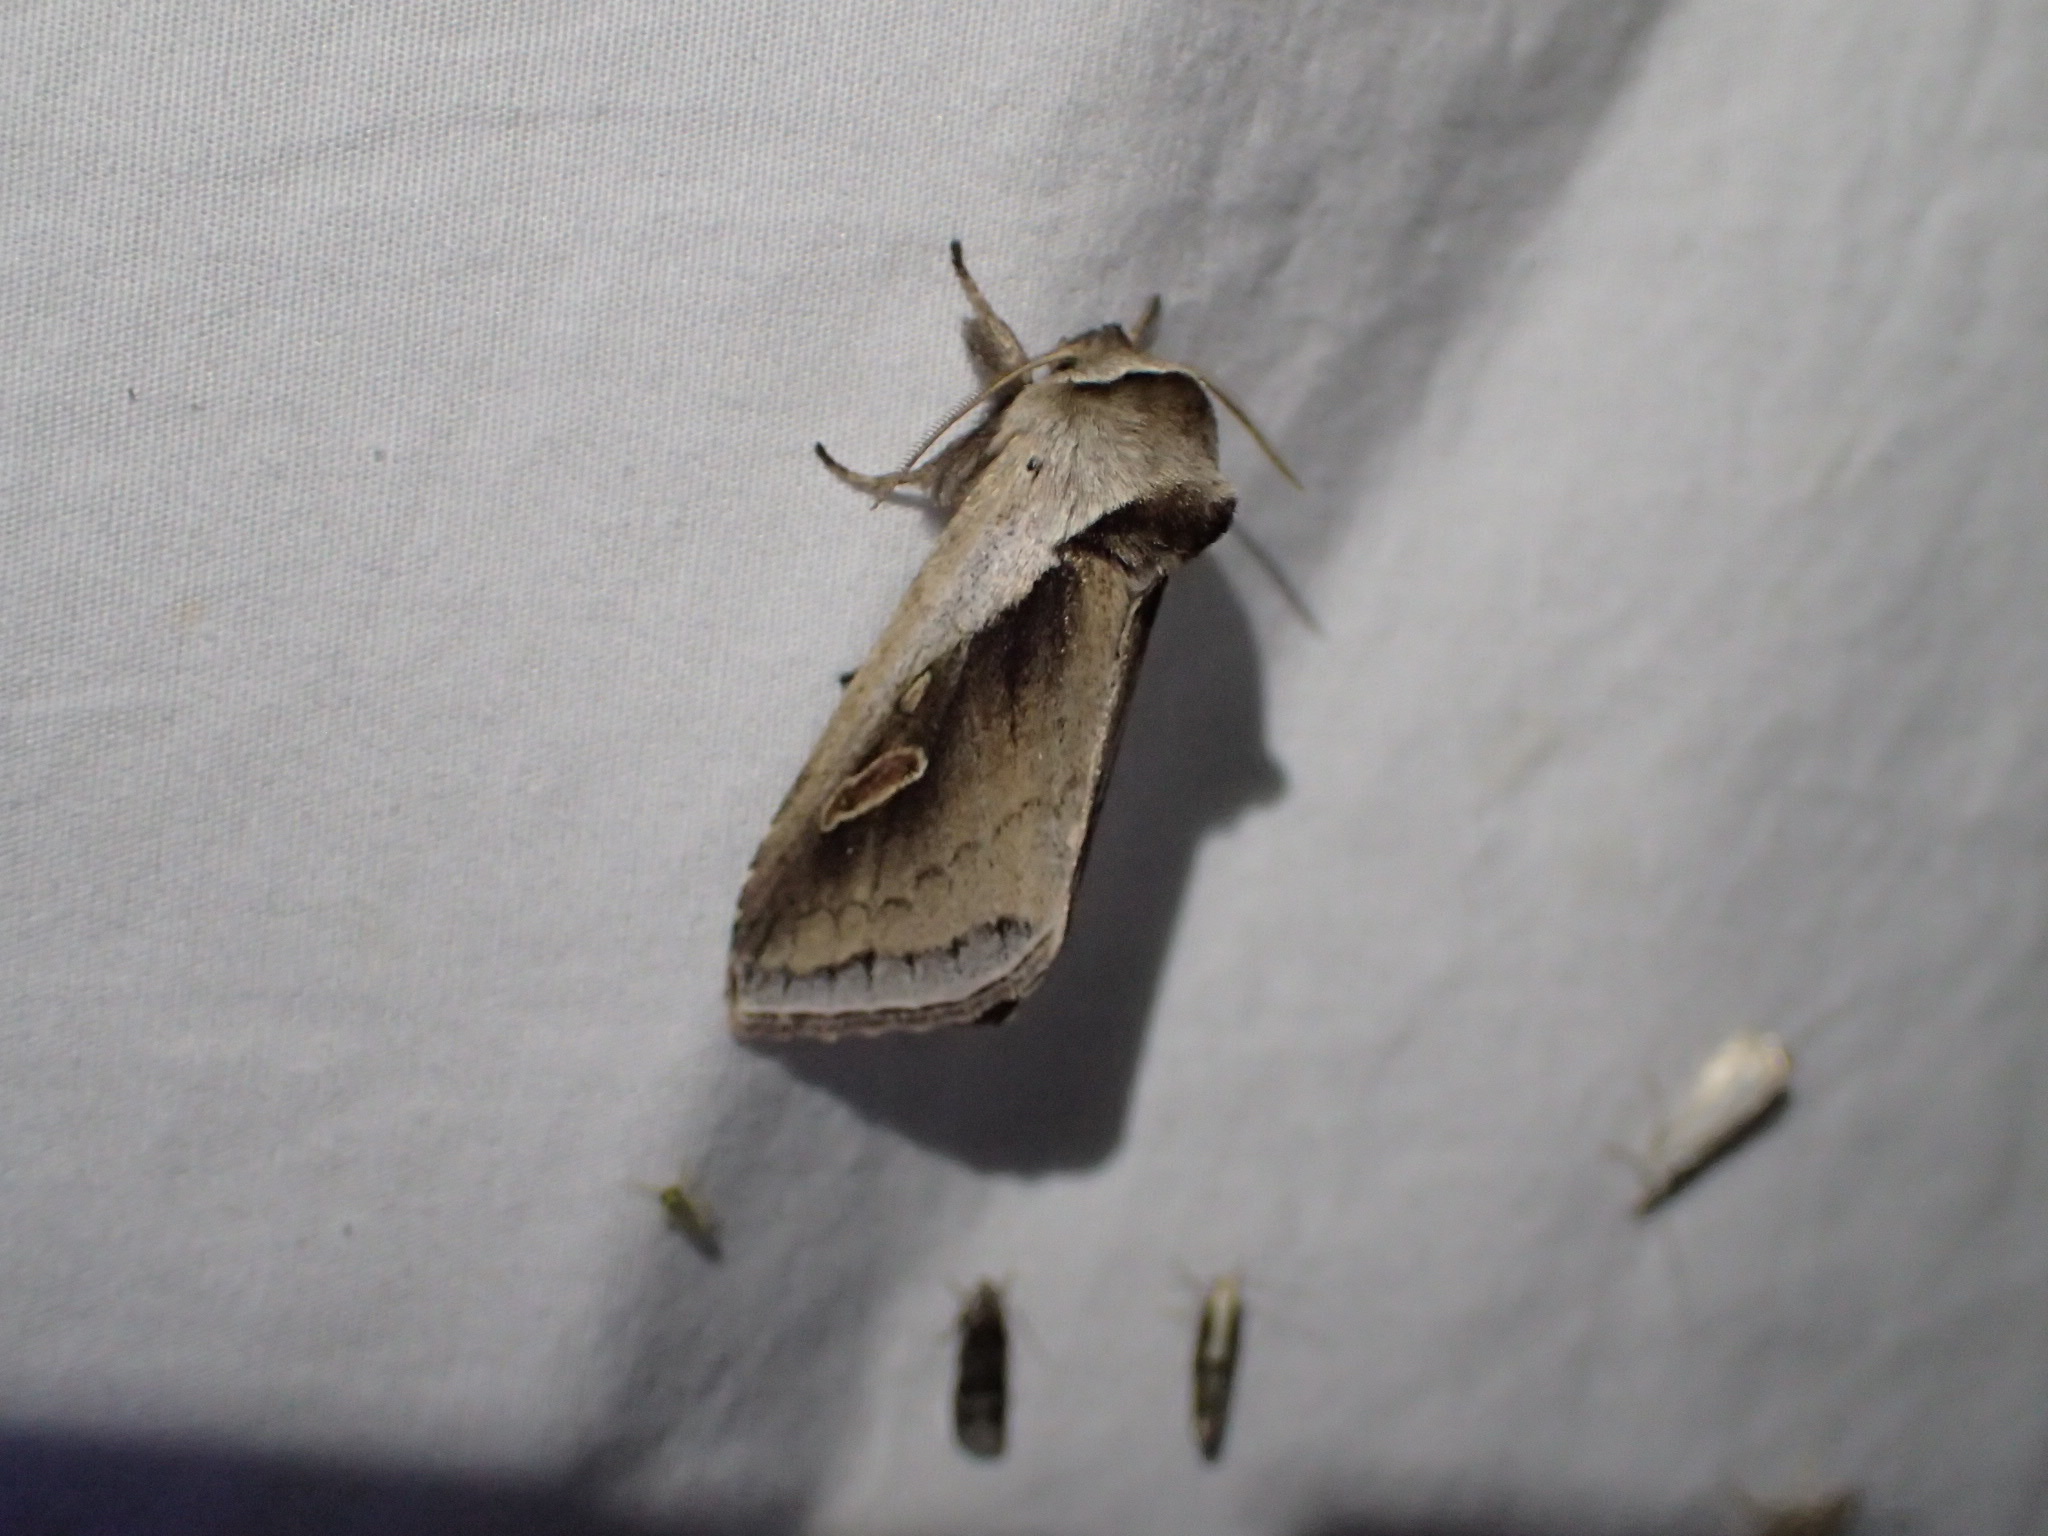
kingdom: Animalia
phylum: Arthropoda
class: Insecta
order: Lepidoptera
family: Noctuidae
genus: Bellura
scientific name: Bellura obliqua
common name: Cattail borer moth
